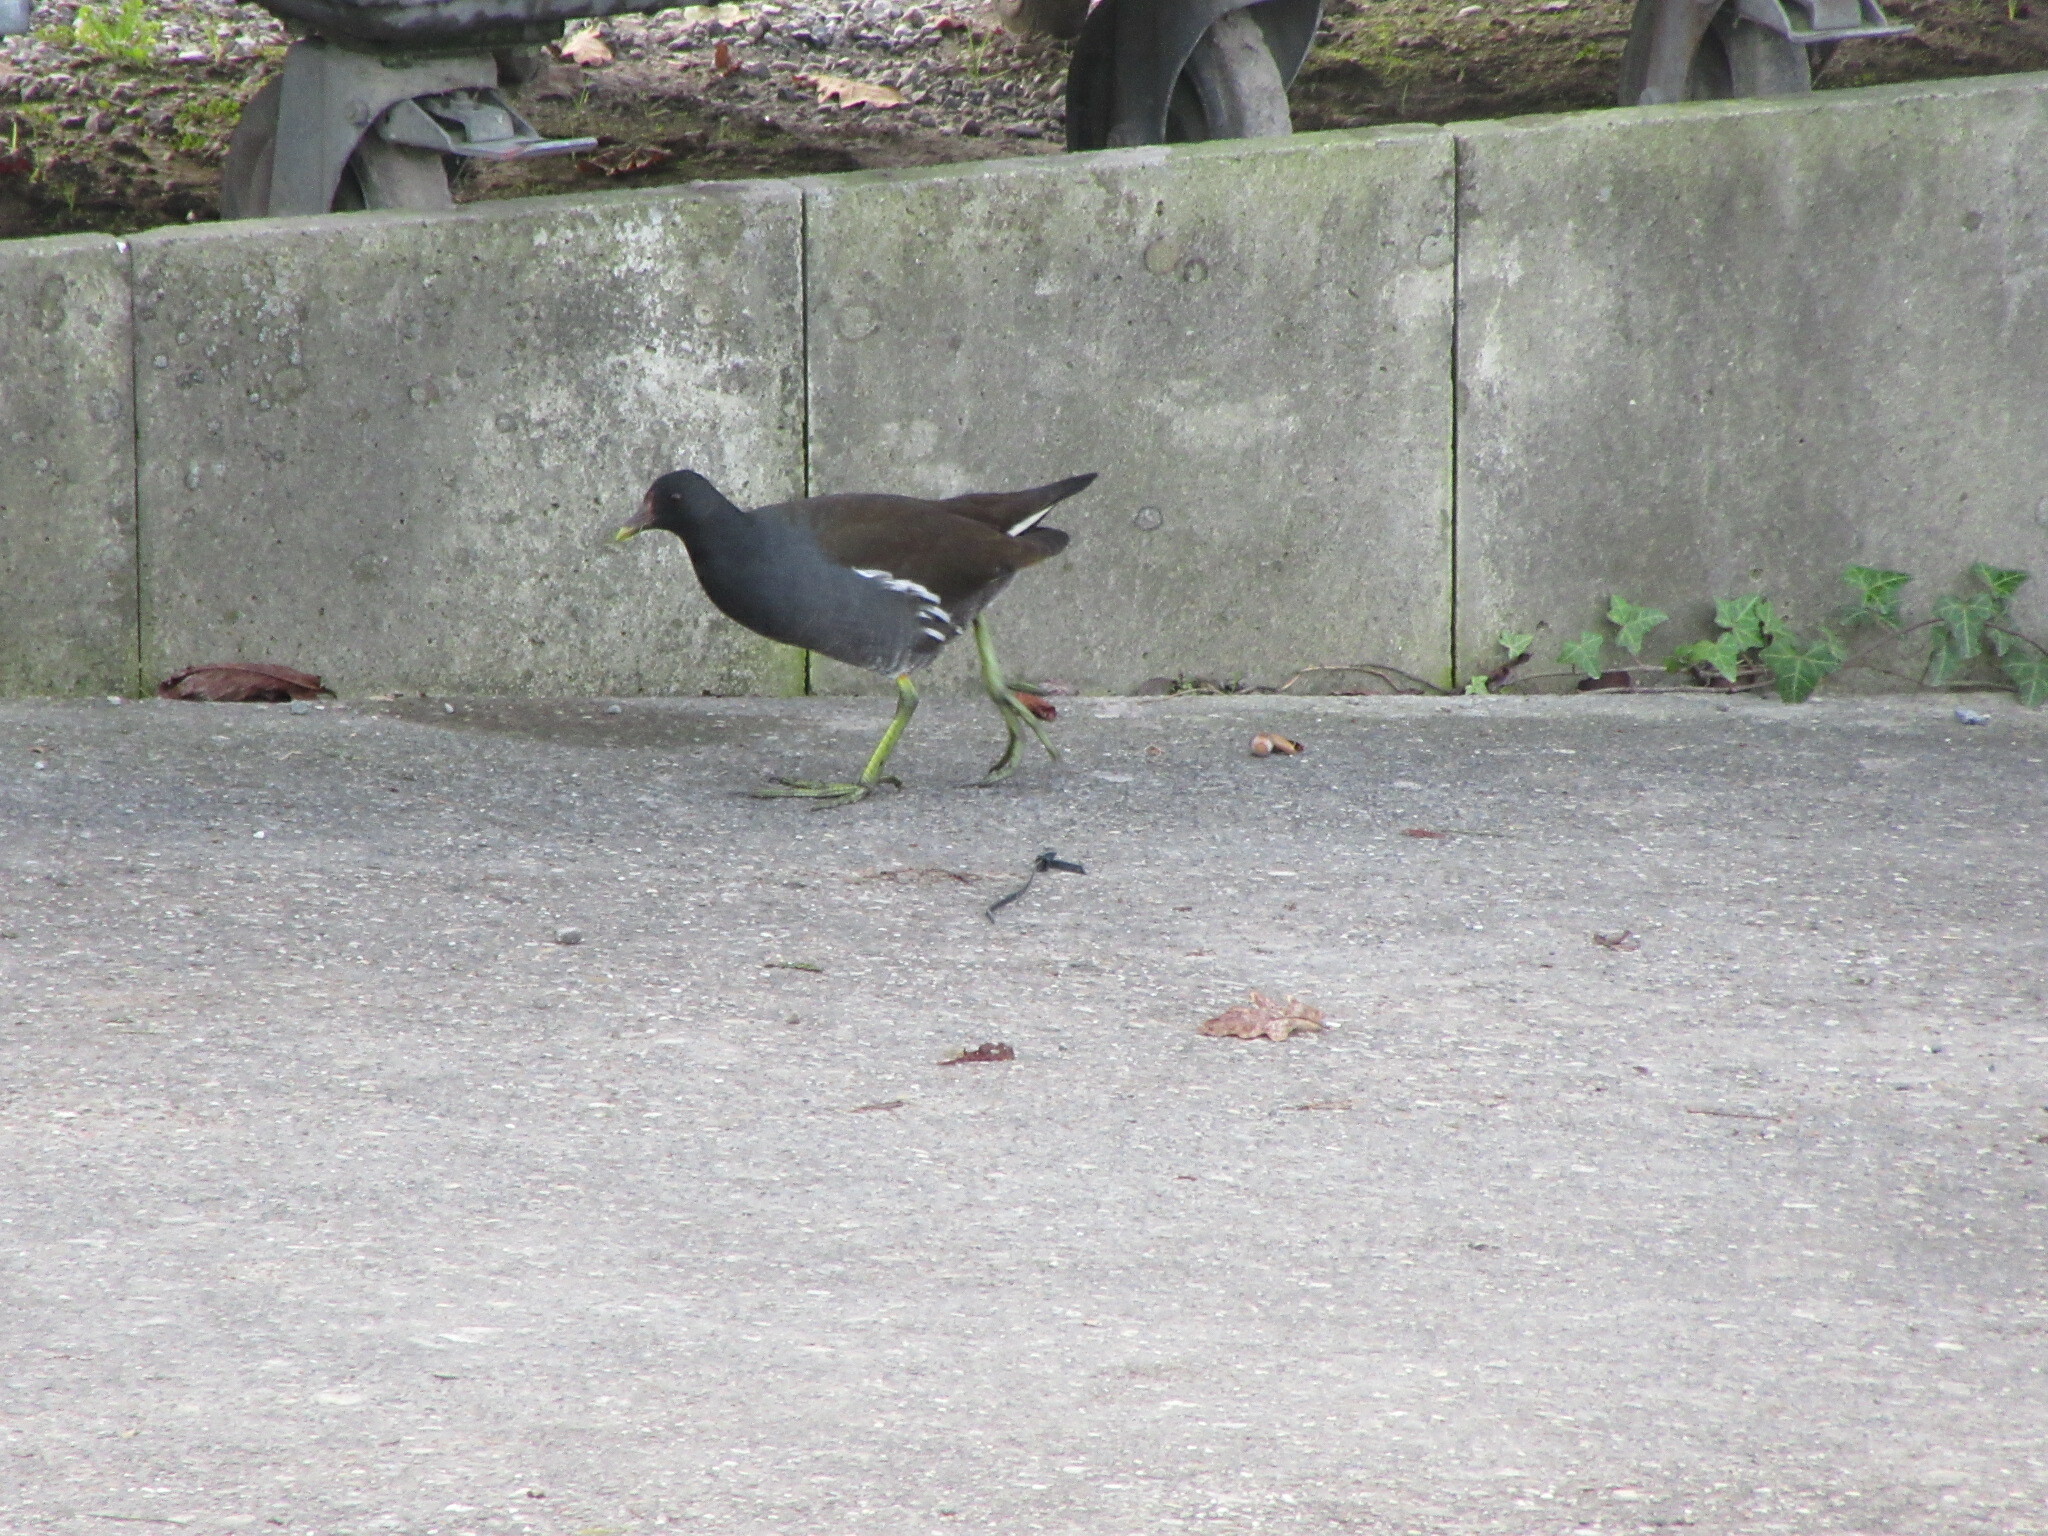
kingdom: Animalia
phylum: Chordata
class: Aves
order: Gruiformes
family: Rallidae
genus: Gallinula
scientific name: Gallinula chloropus
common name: Common moorhen
